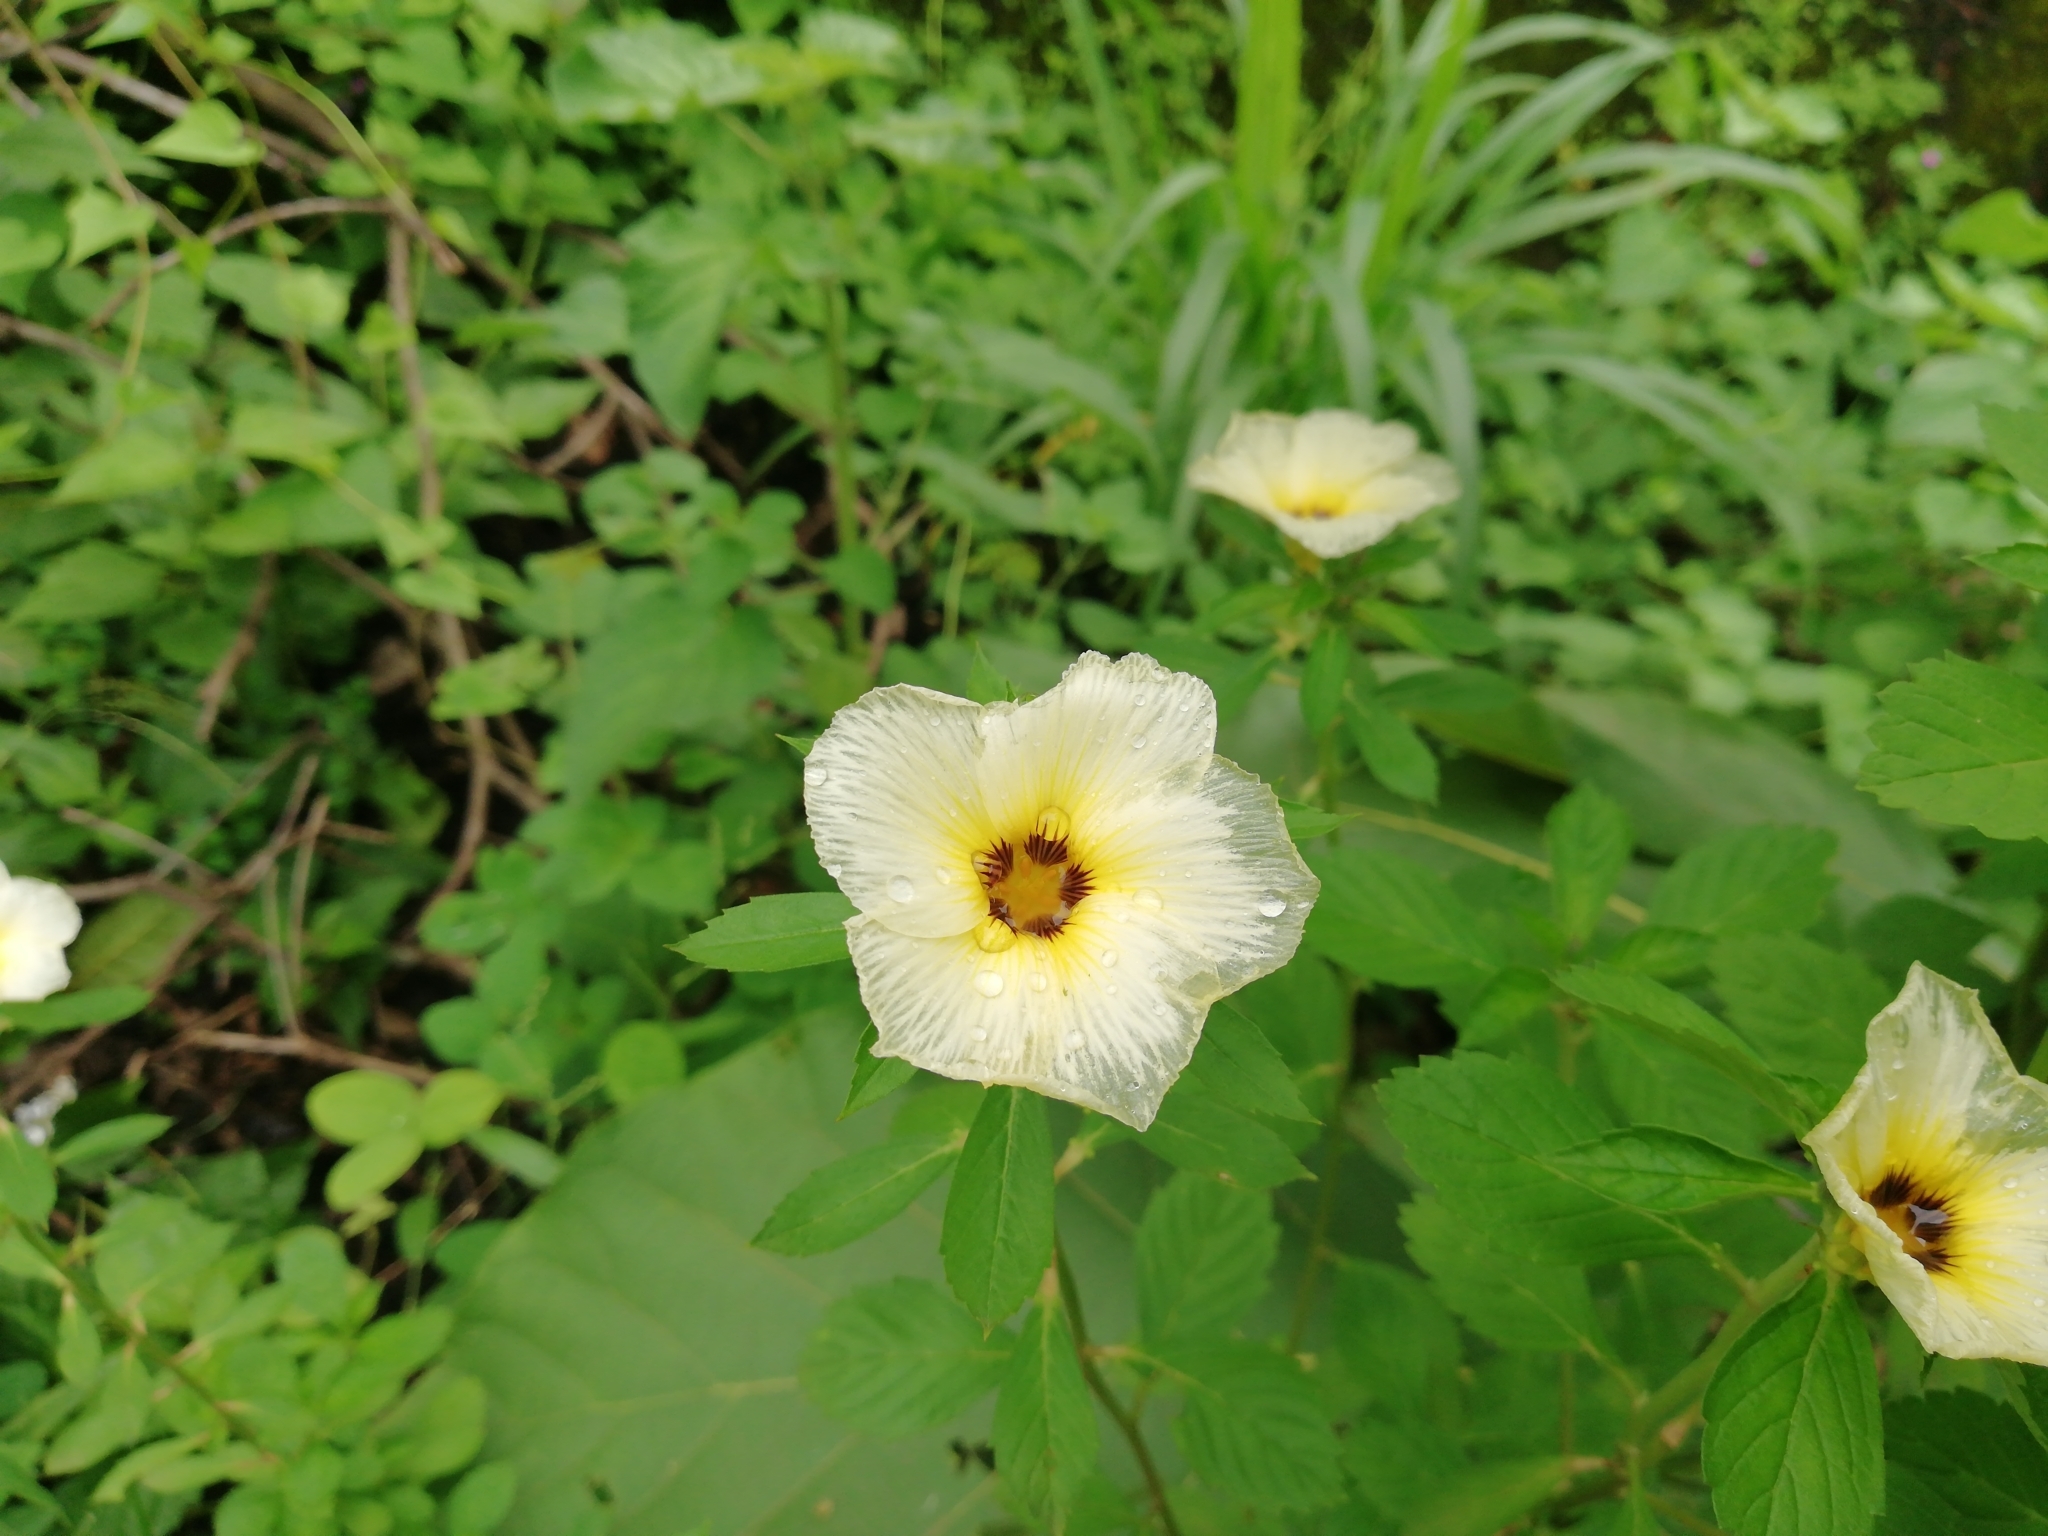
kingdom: Plantae
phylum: Tracheophyta
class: Magnoliopsida
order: Malpighiales
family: Turneraceae
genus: Turnera
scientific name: Turnera subulata
